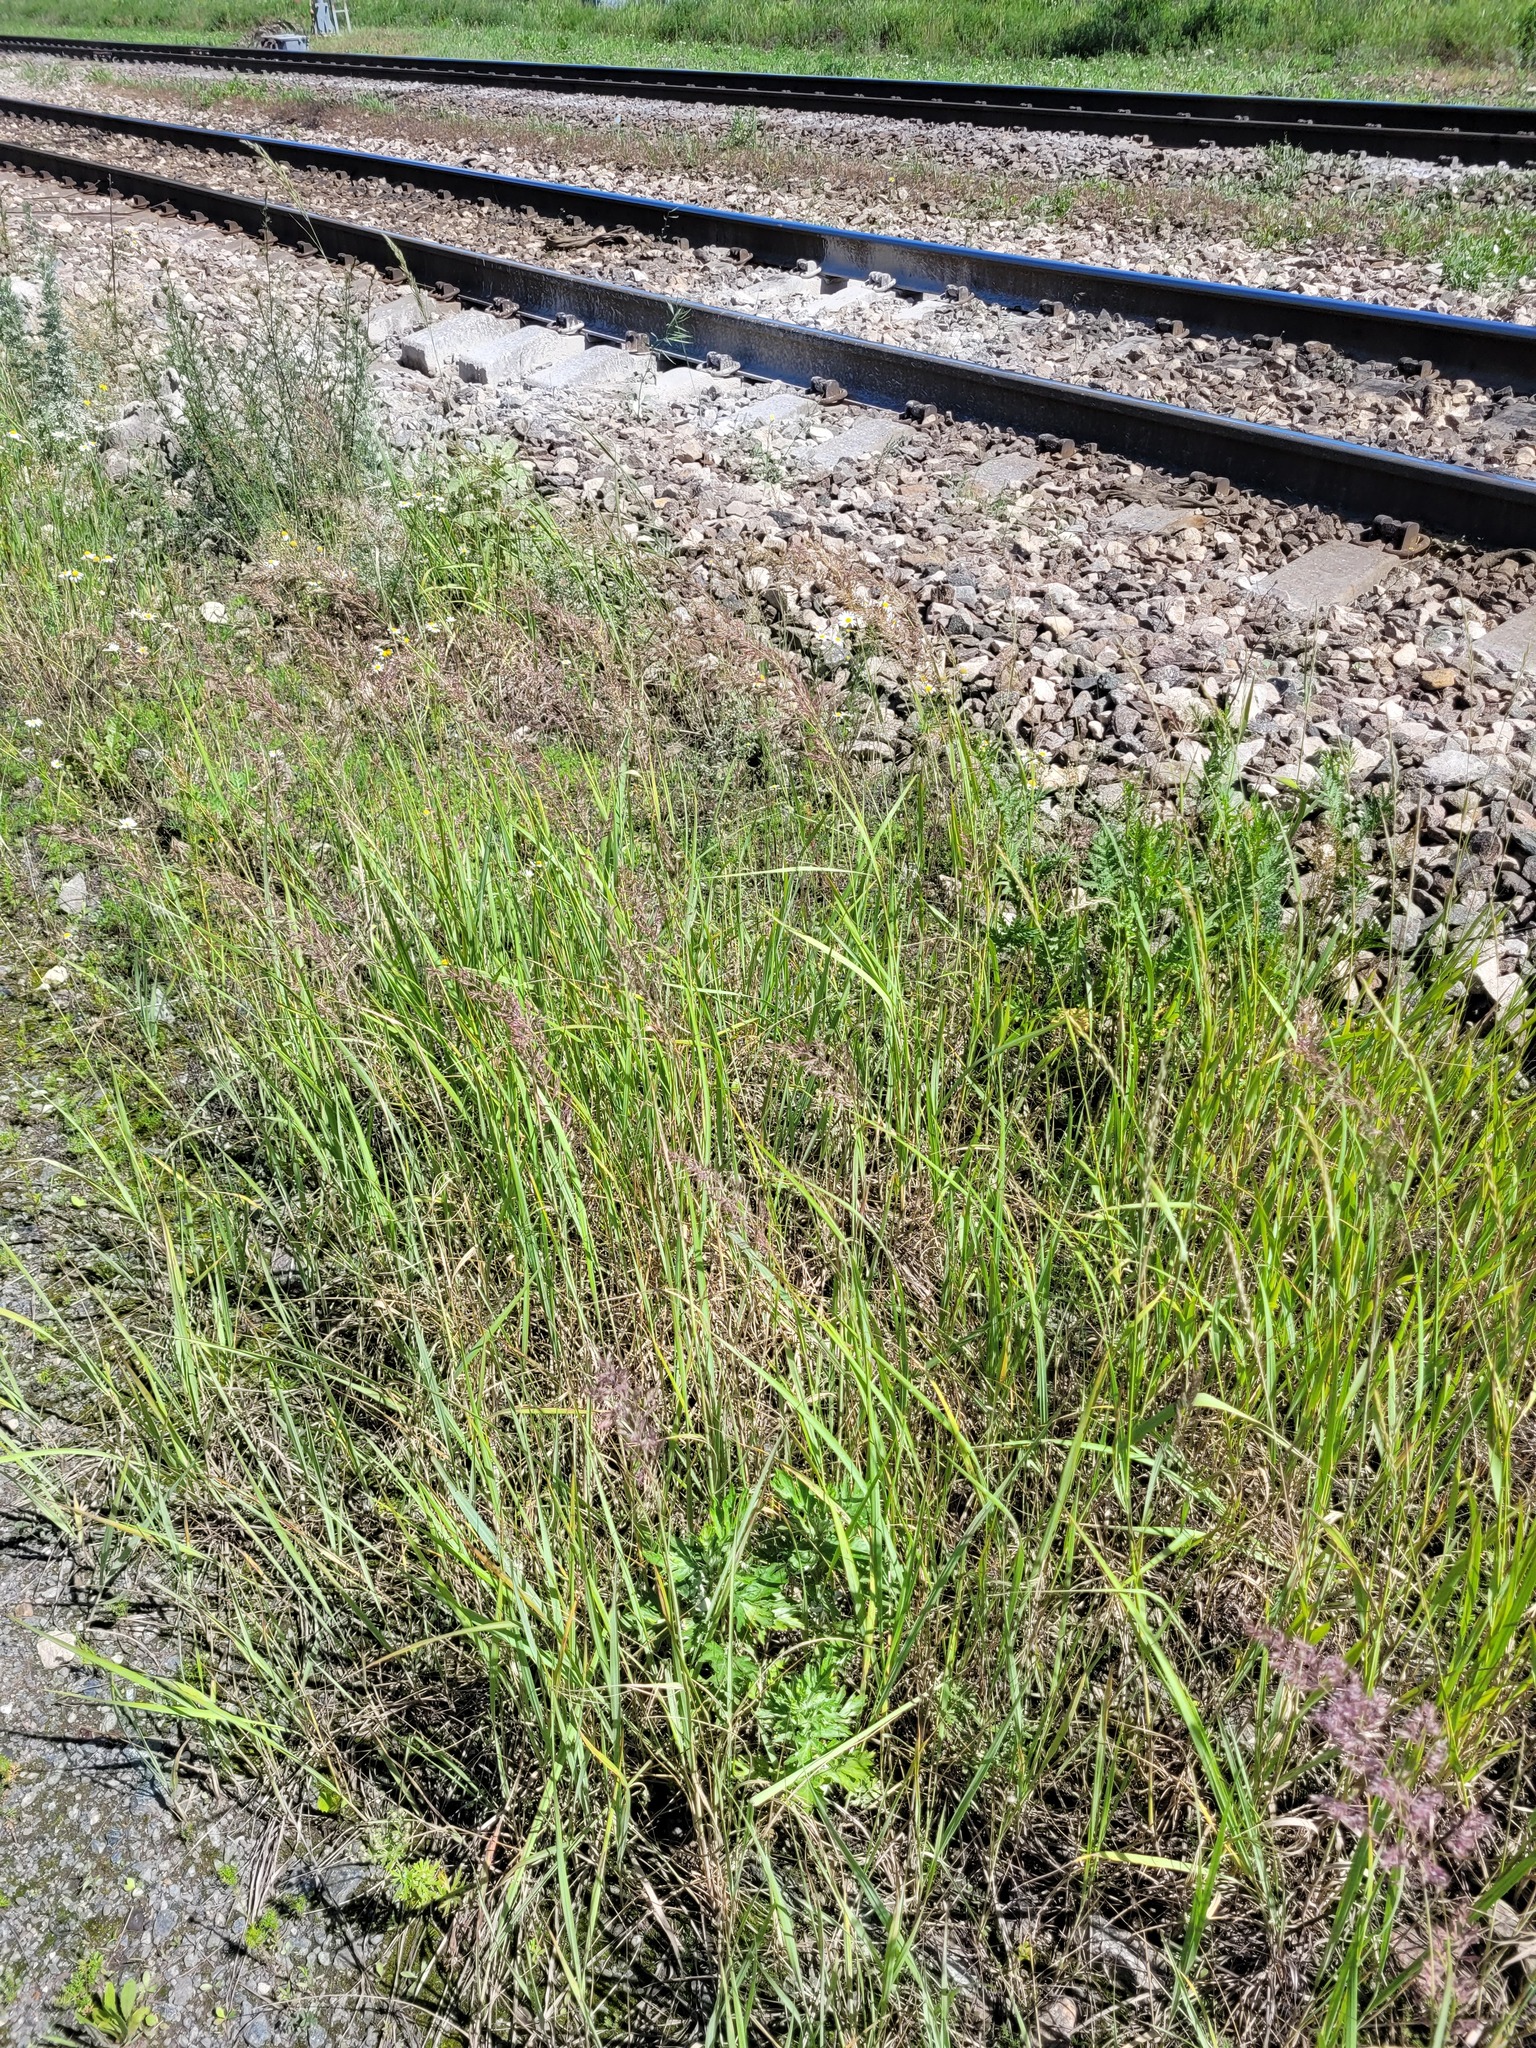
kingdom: Plantae
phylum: Tracheophyta
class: Liliopsida
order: Poales
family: Poaceae
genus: Calamagrostis
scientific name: Calamagrostis epigejos
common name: Wood small-reed
